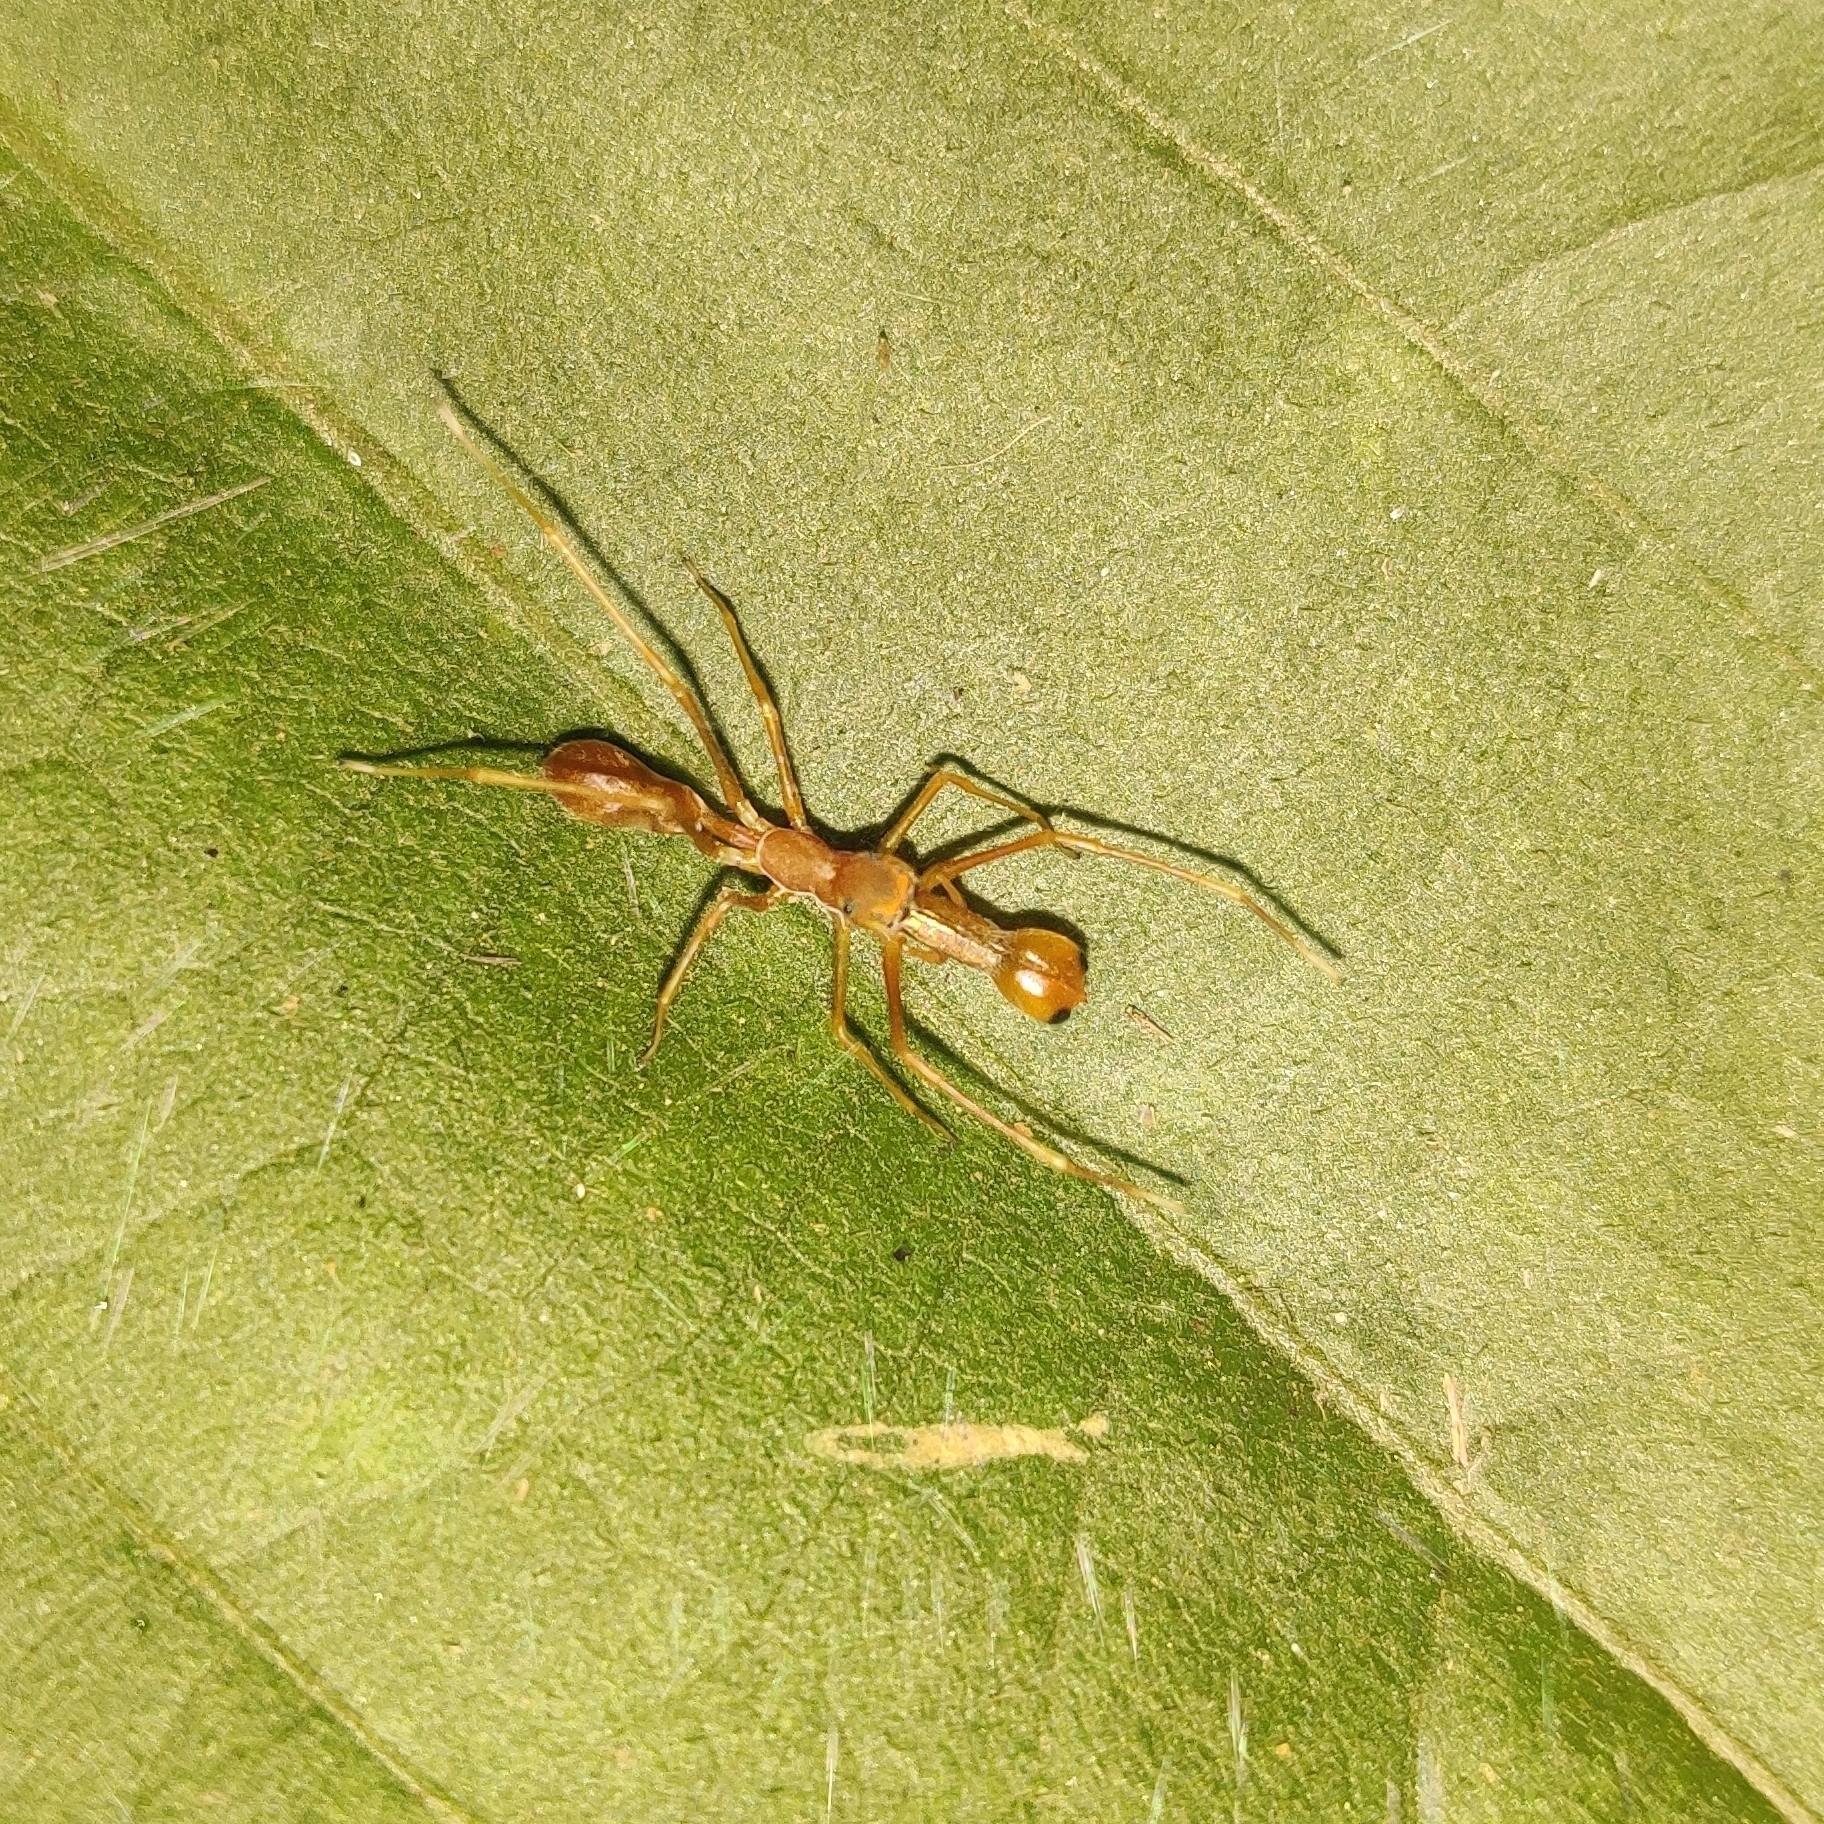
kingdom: Animalia
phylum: Arthropoda
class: Arachnida
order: Araneae
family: Salticidae
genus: Myrmaplata
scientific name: Myrmaplata plataleoides
